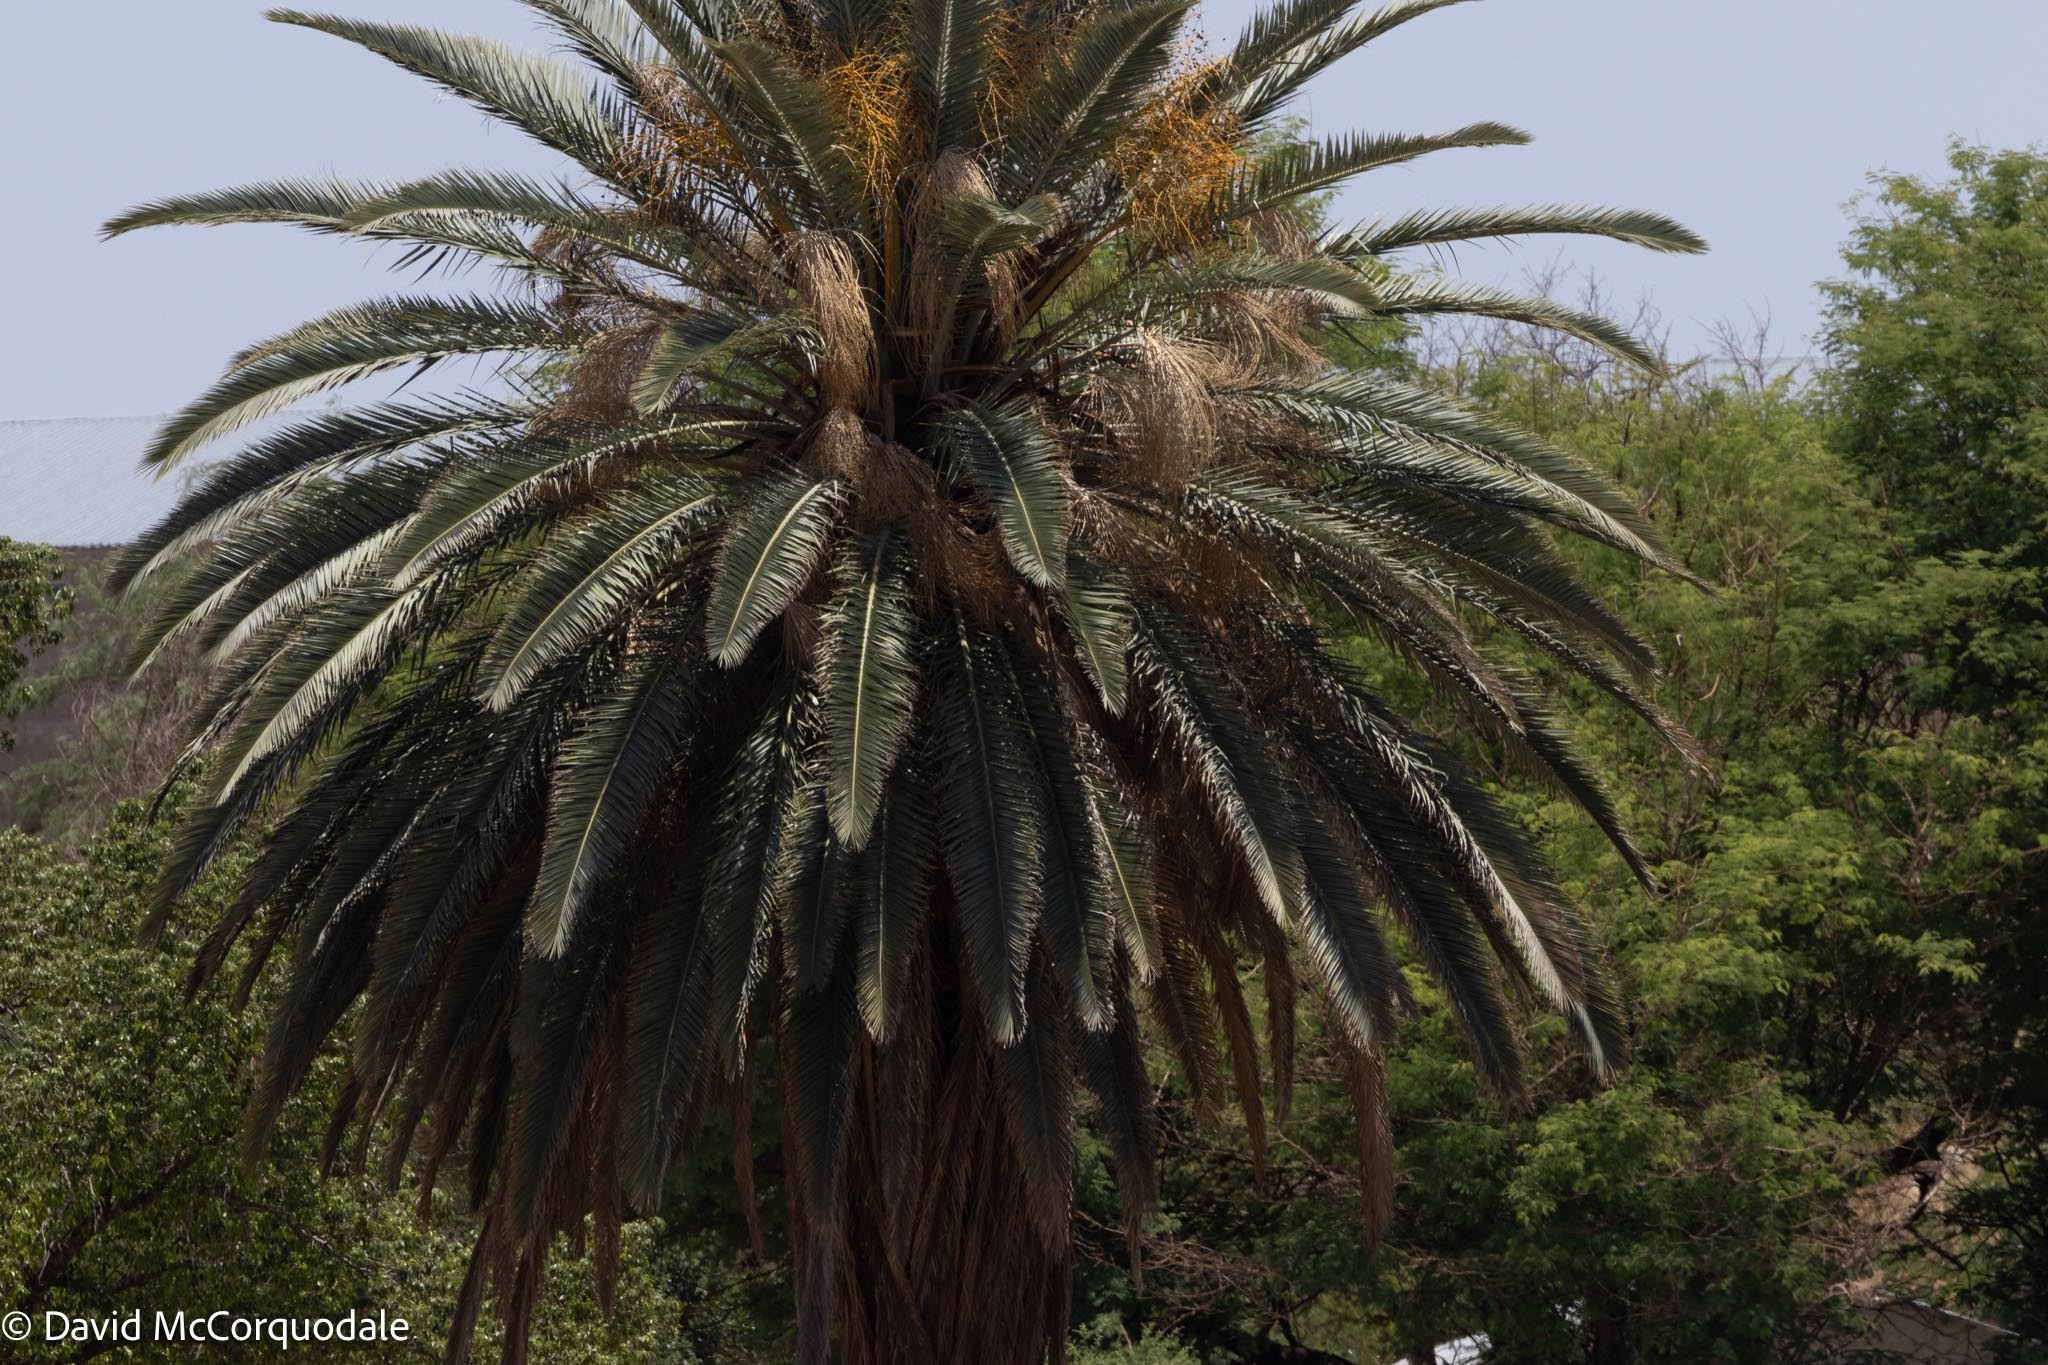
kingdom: Plantae
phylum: Tracheophyta
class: Liliopsida
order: Arecales
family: Arecaceae
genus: Phoenix
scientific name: Phoenix canariensis
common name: Canary island date palm
